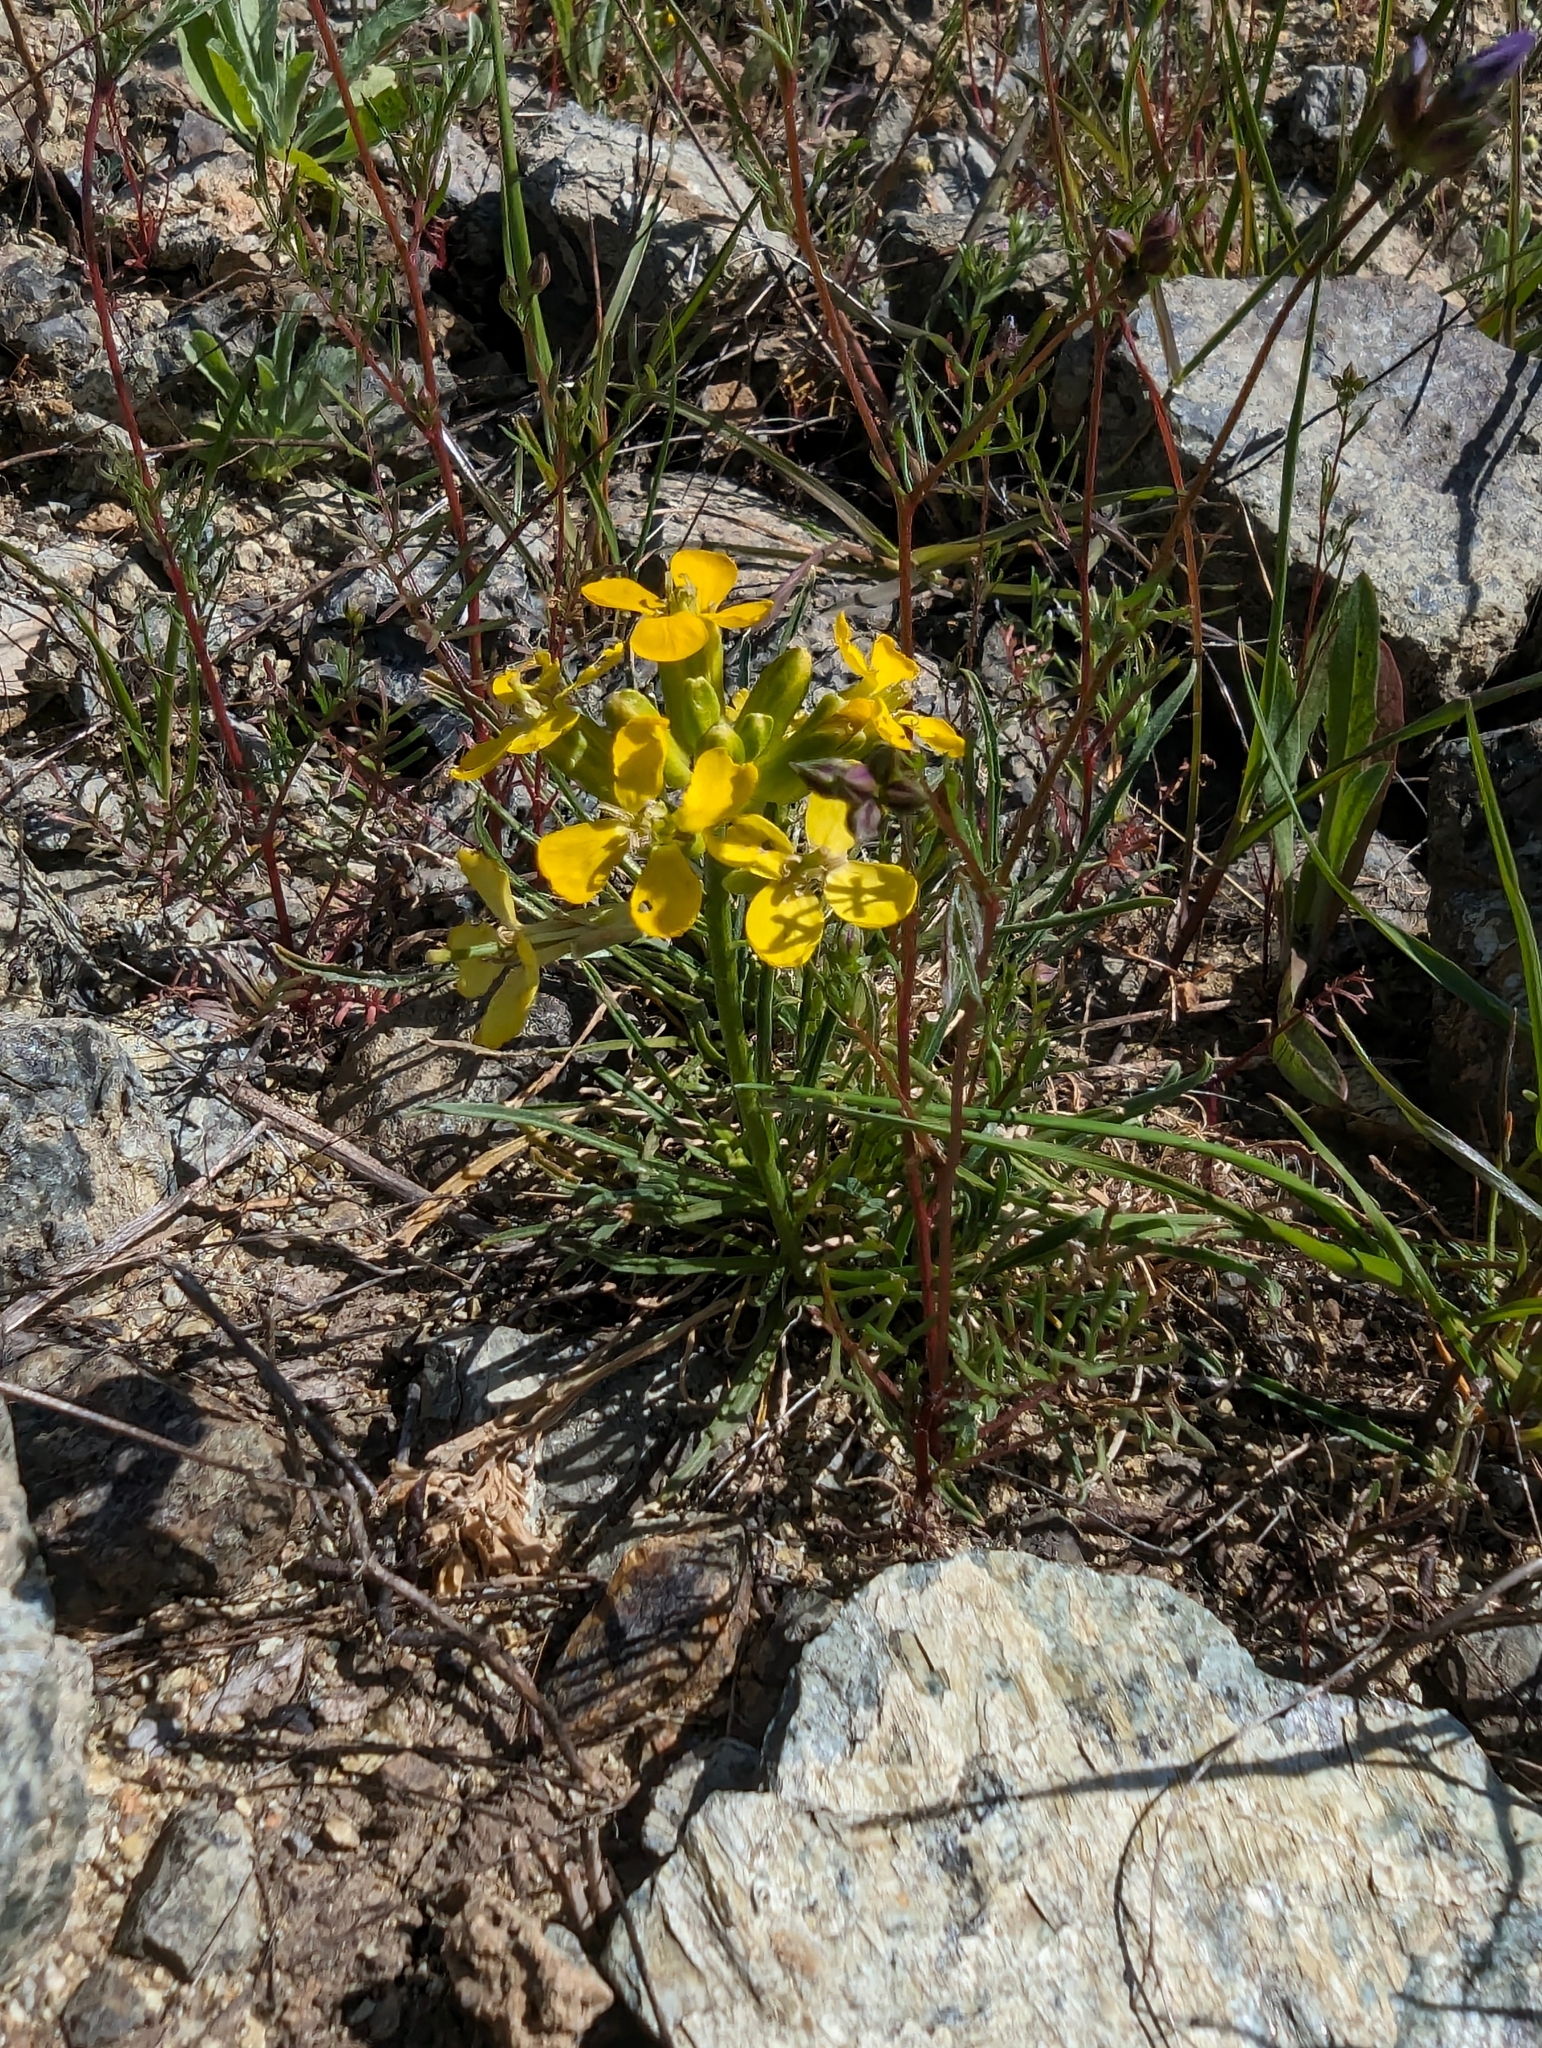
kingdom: Plantae
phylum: Tracheophyta
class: Magnoliopsida
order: Brassicales
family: Brassicaceae
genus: Erysimum
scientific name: Erysimum franciscanum
